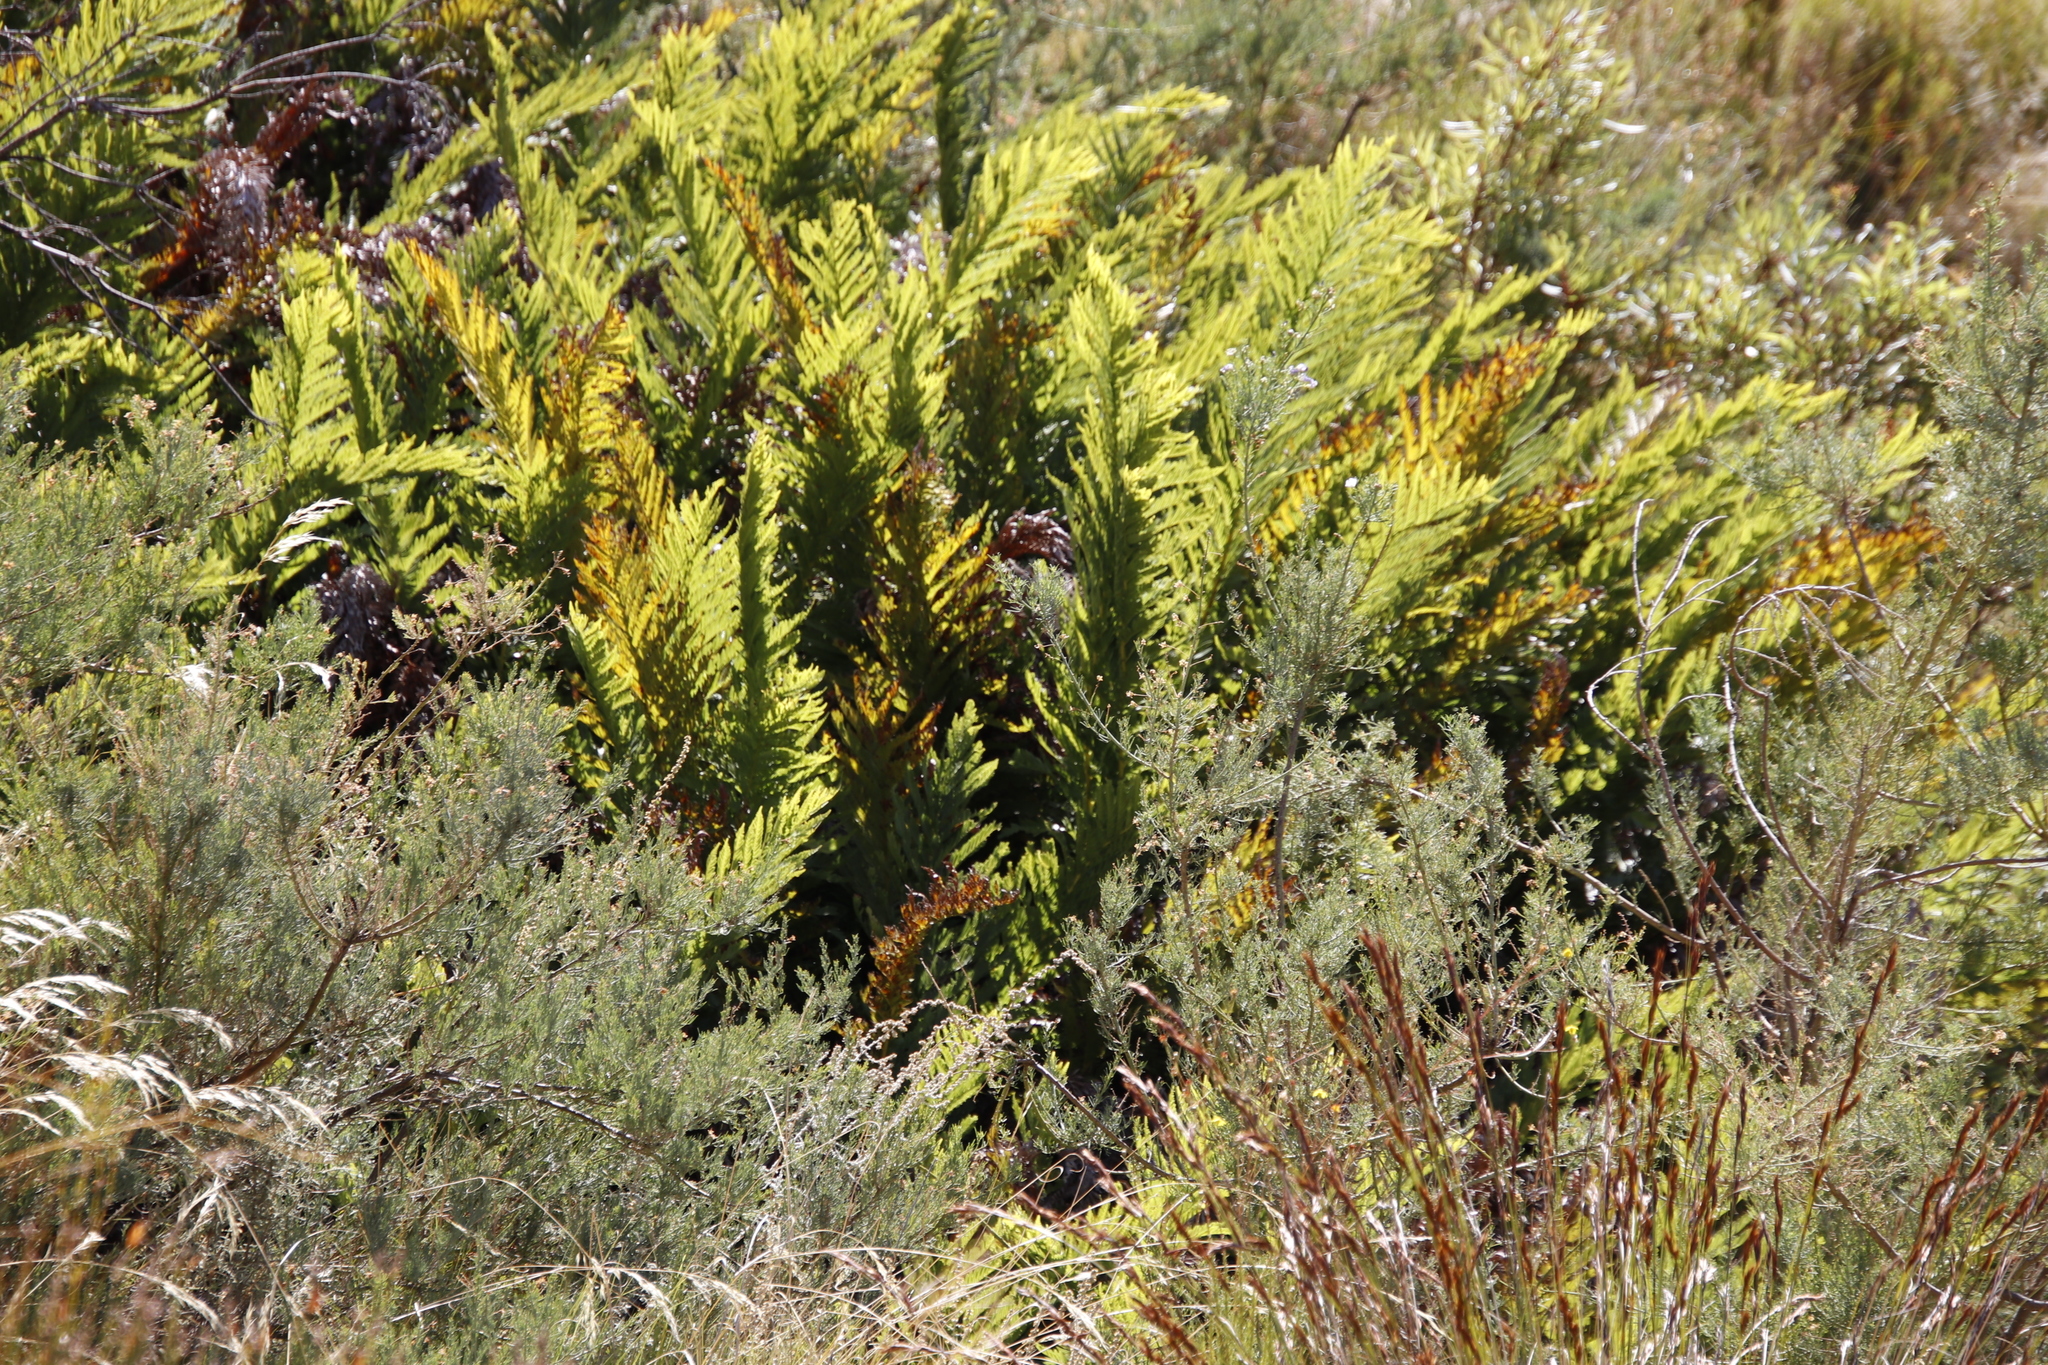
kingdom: Plantae
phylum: Tracheophyta
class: Polypodiopsida
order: Osmundales
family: Osmundaceae
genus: Todea
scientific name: Todea barbara
